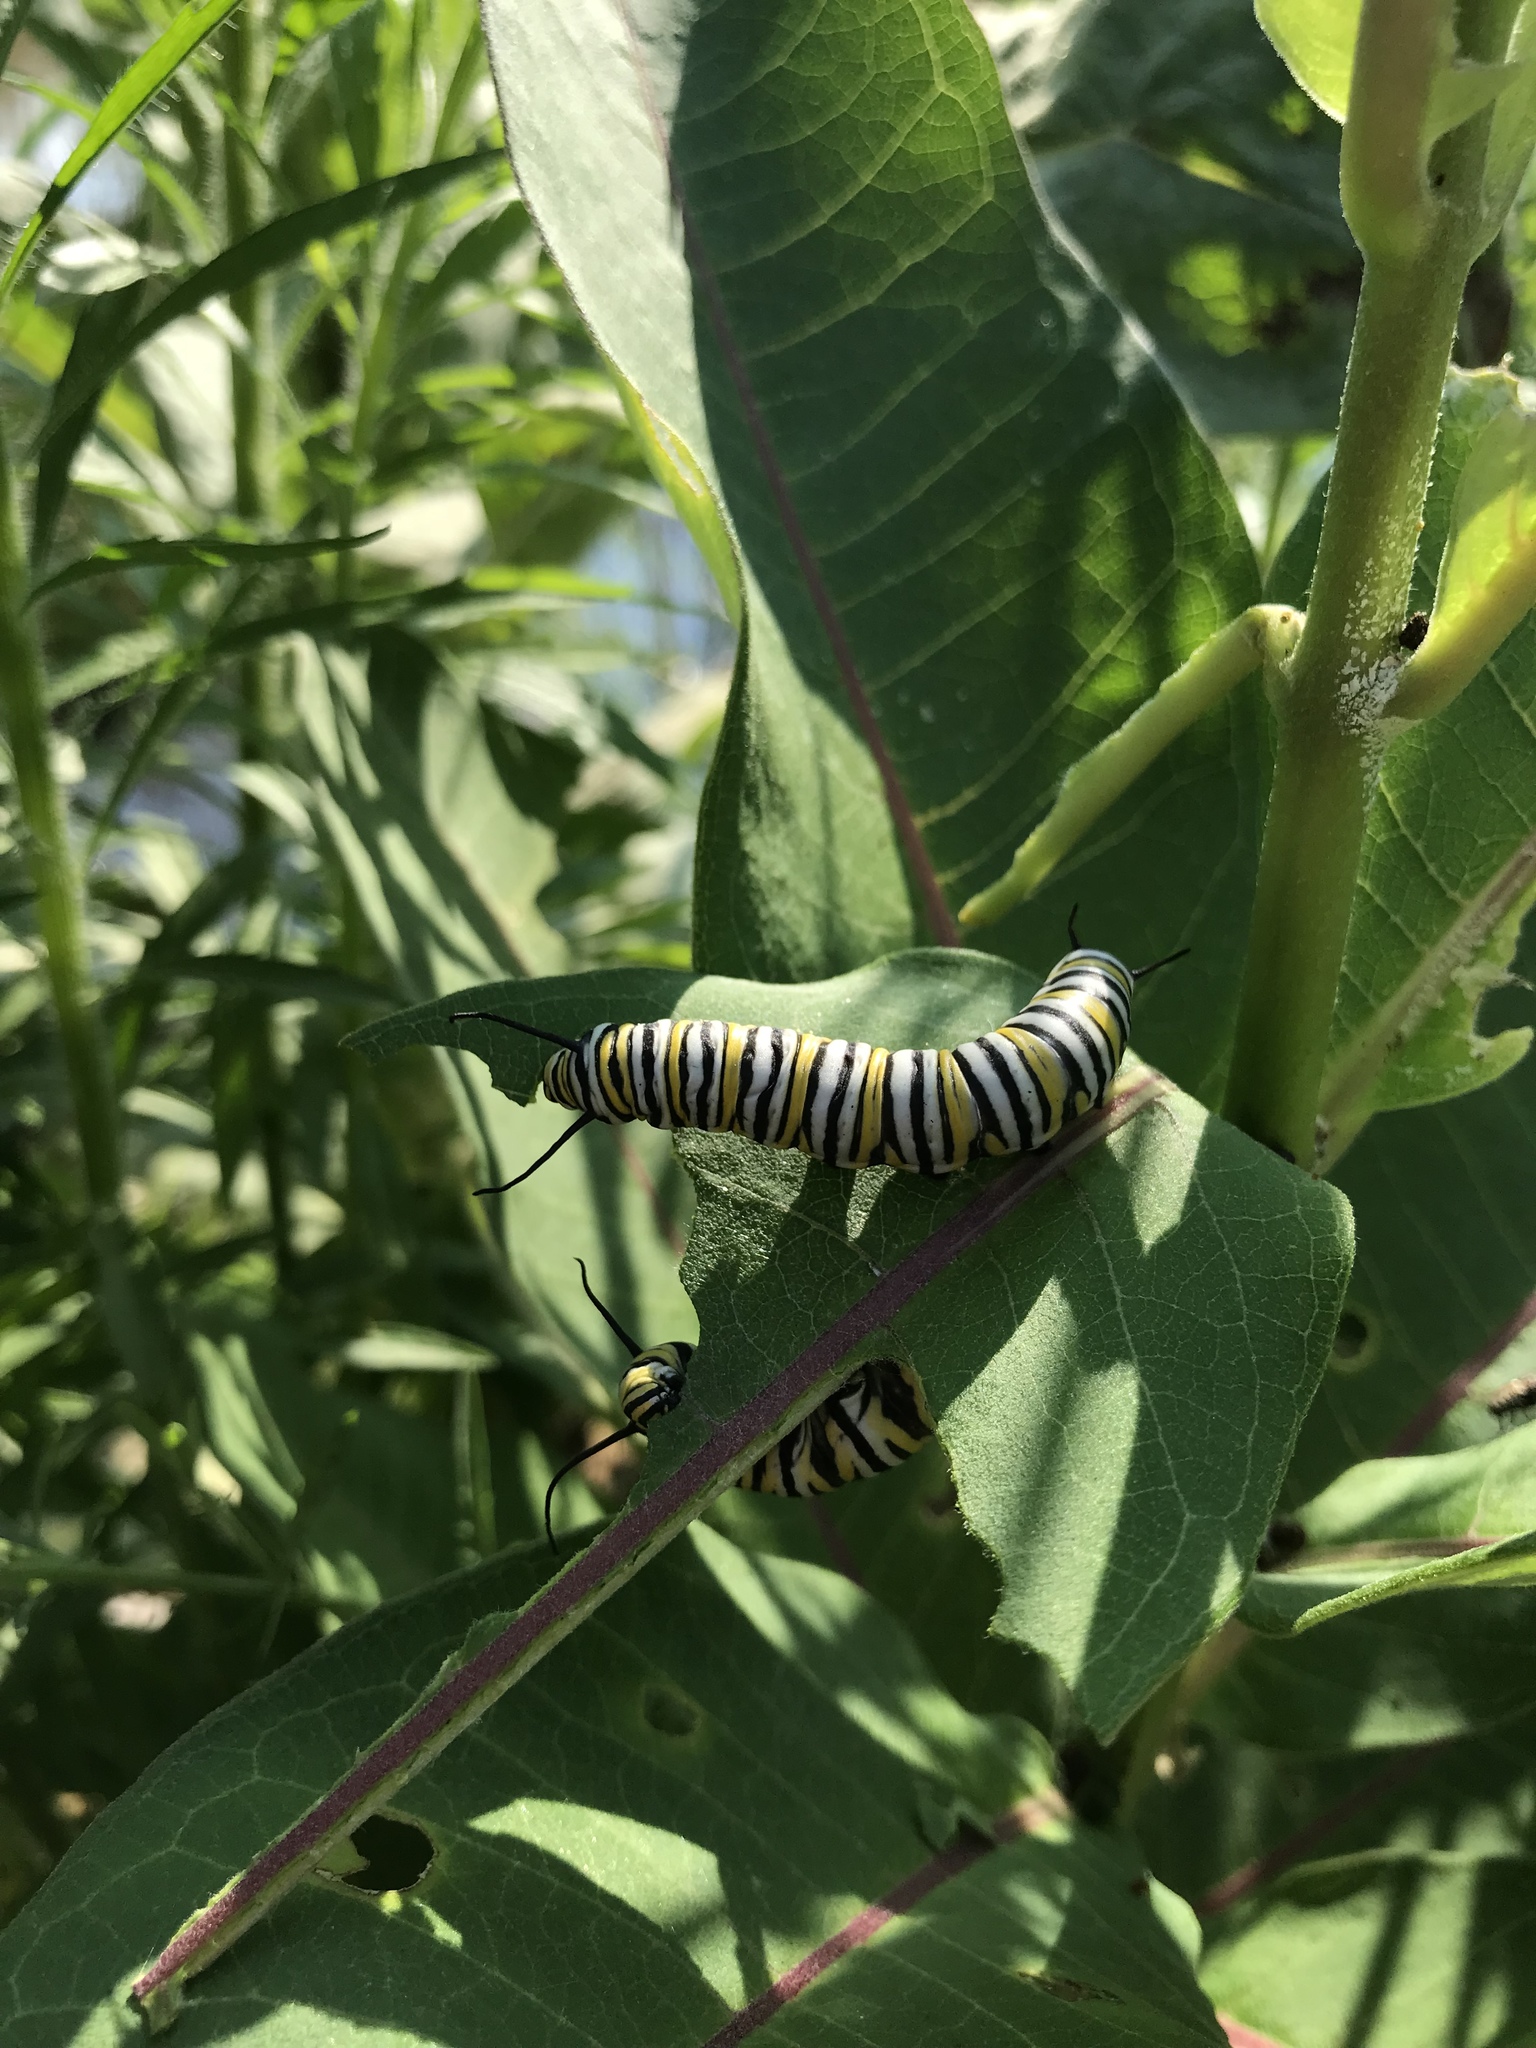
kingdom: Animalia
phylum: Arthropoda
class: Insecta
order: Lepidoptera
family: Nymphalidae
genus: Danaus
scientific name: Danaus plexippus
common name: Monarch
